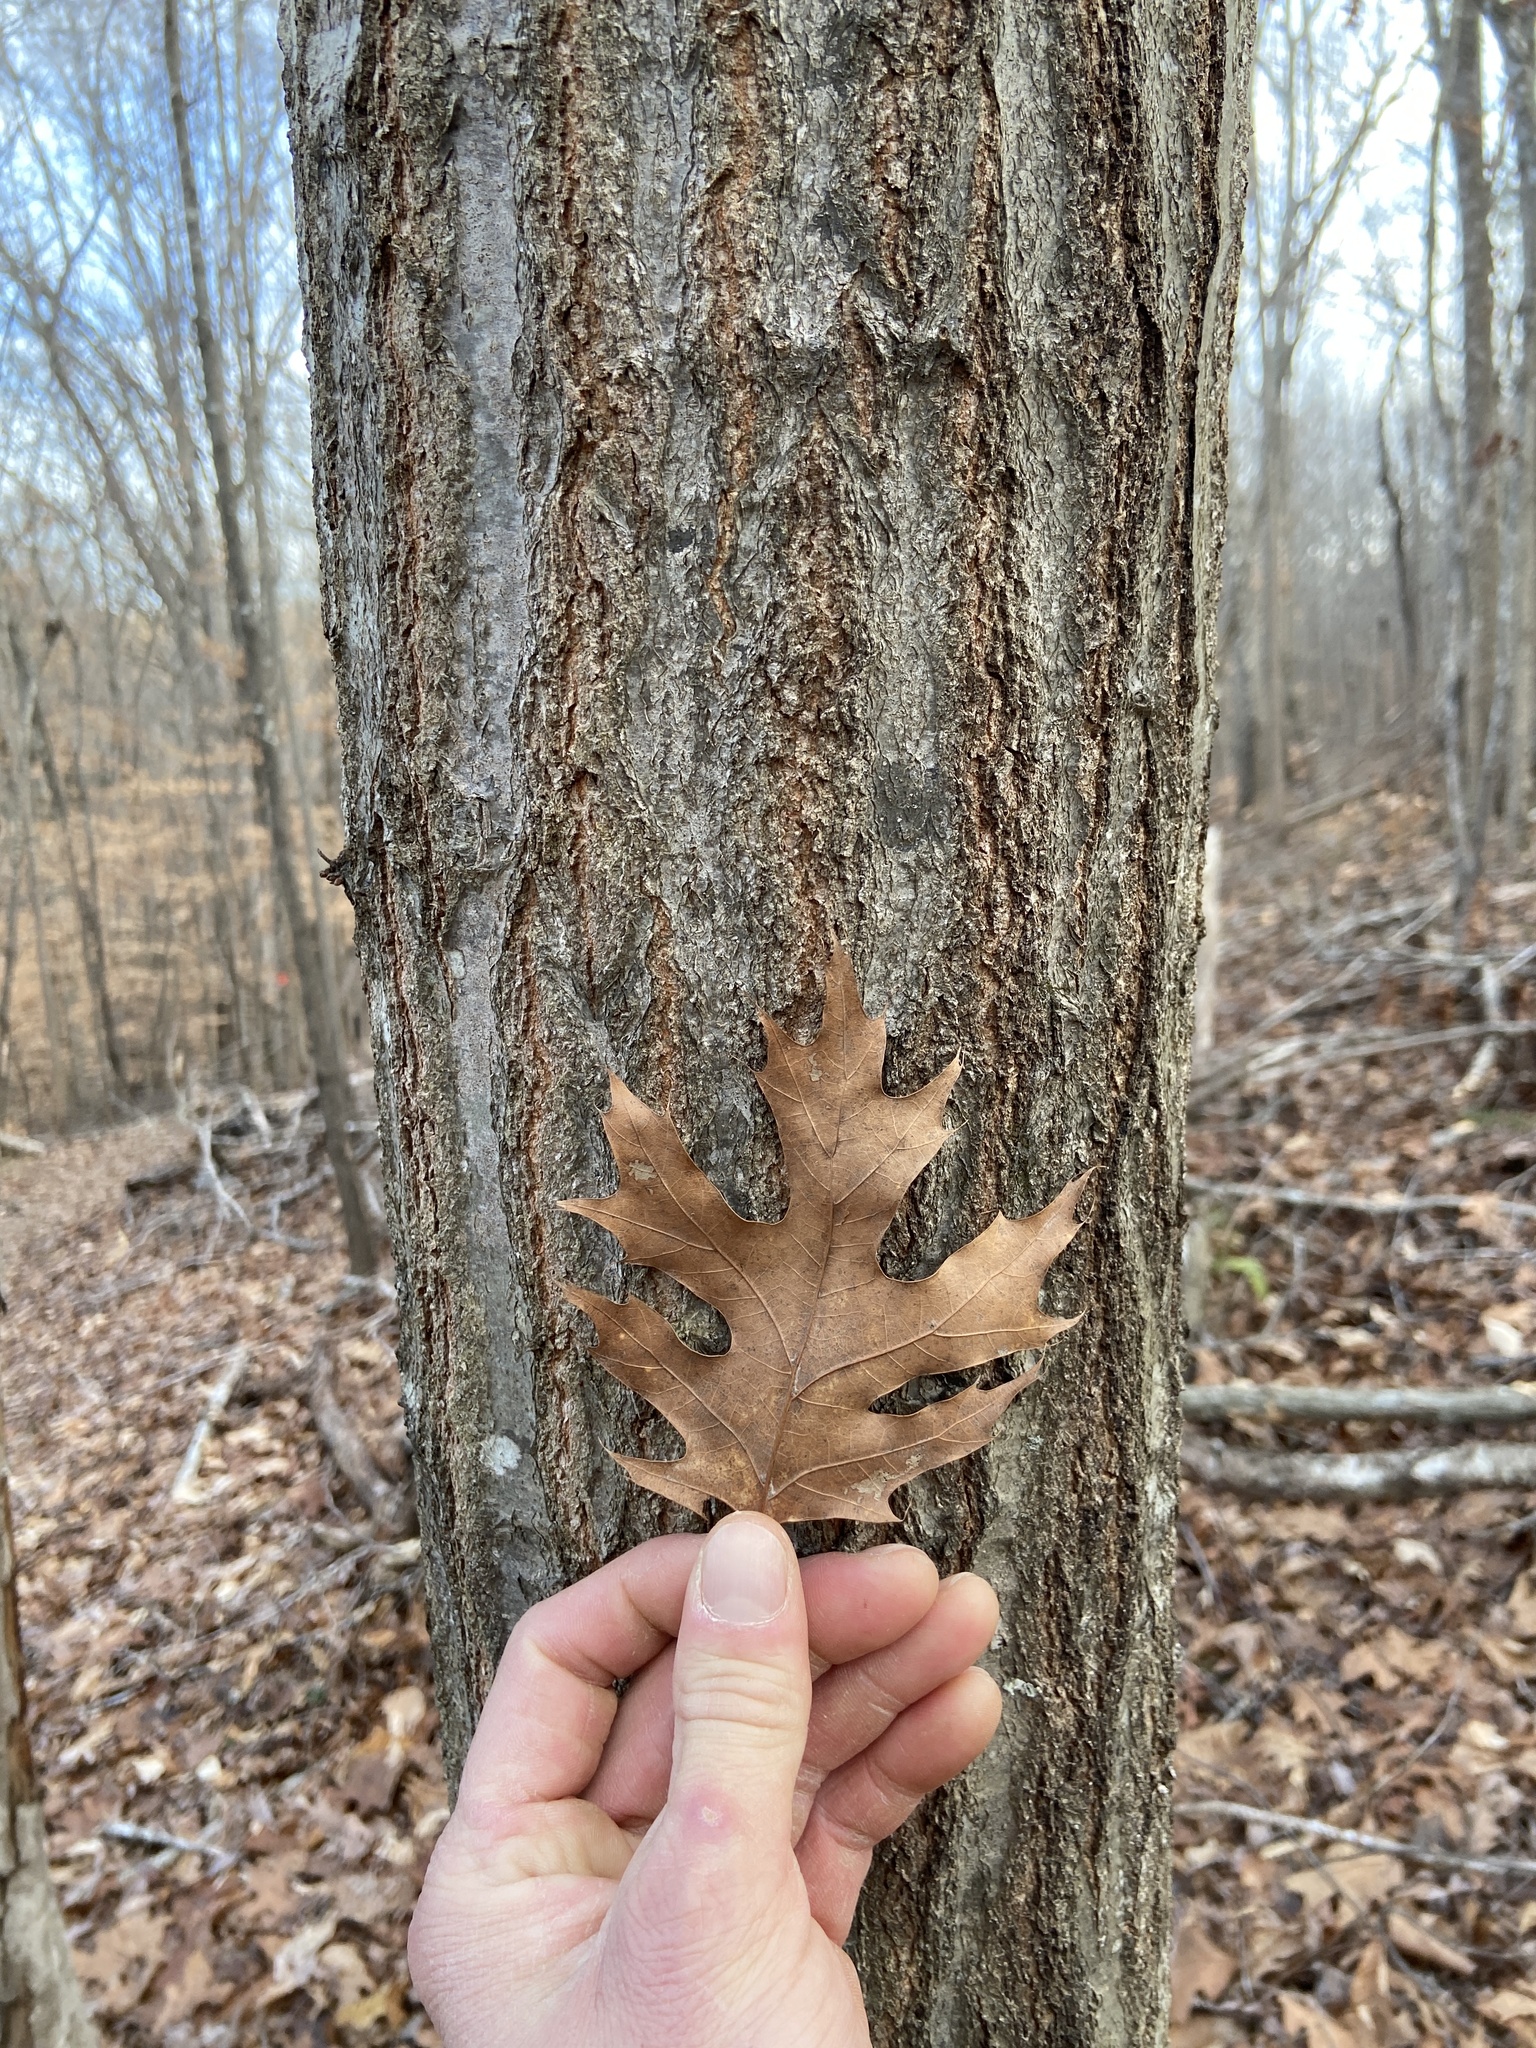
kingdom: Plantae
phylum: Tracheophyta
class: Magnoliopsida
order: Fagales
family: Fagaceae
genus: Quercus
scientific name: Quercus coccinea
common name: Scarlet oak
